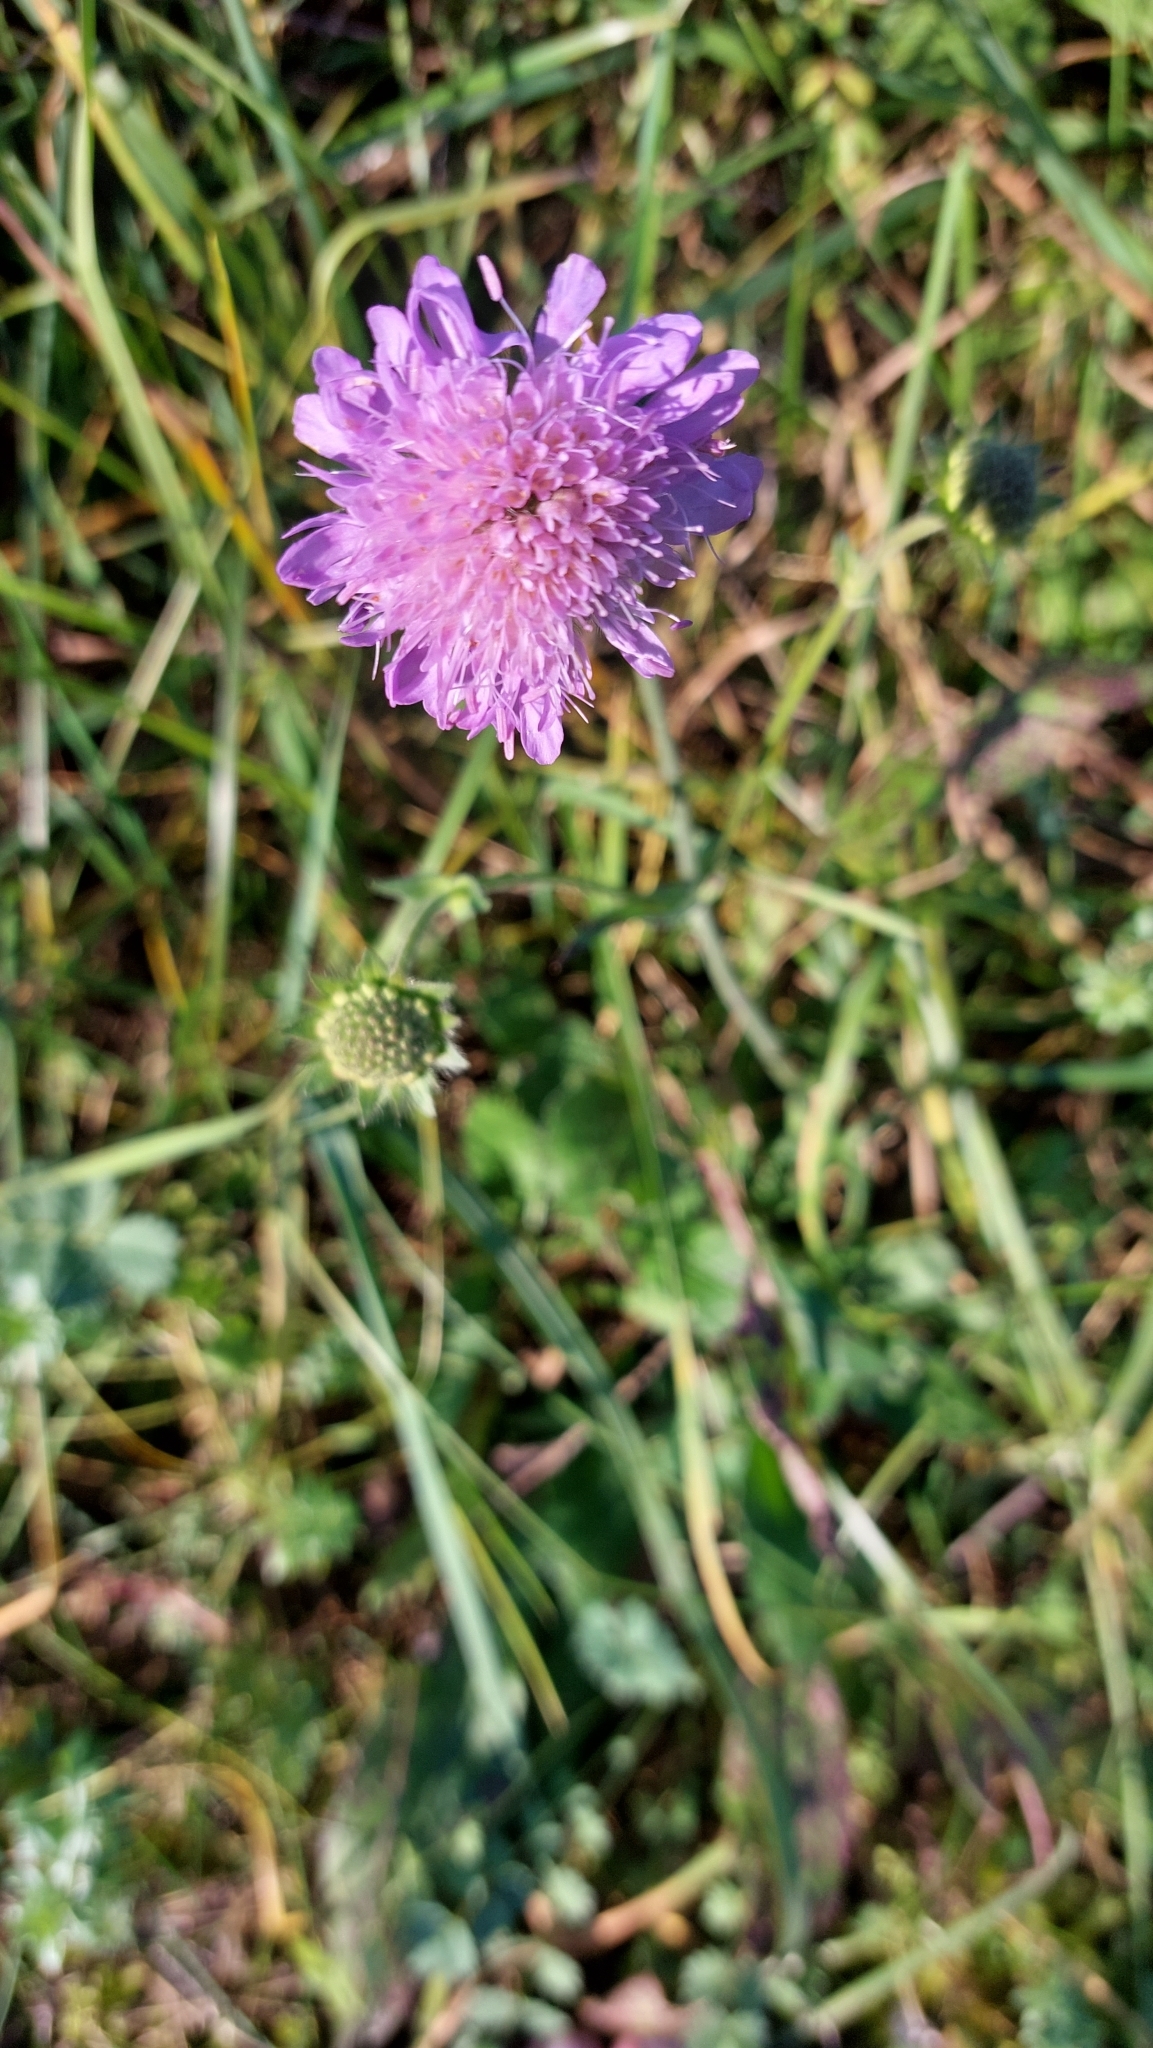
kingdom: Plantae
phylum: Tracheophyta
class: Magnoliopsida
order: Dipsacales
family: Caprifoliaceae
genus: Knautia
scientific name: Knautia arvensis
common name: Field scabiosa
